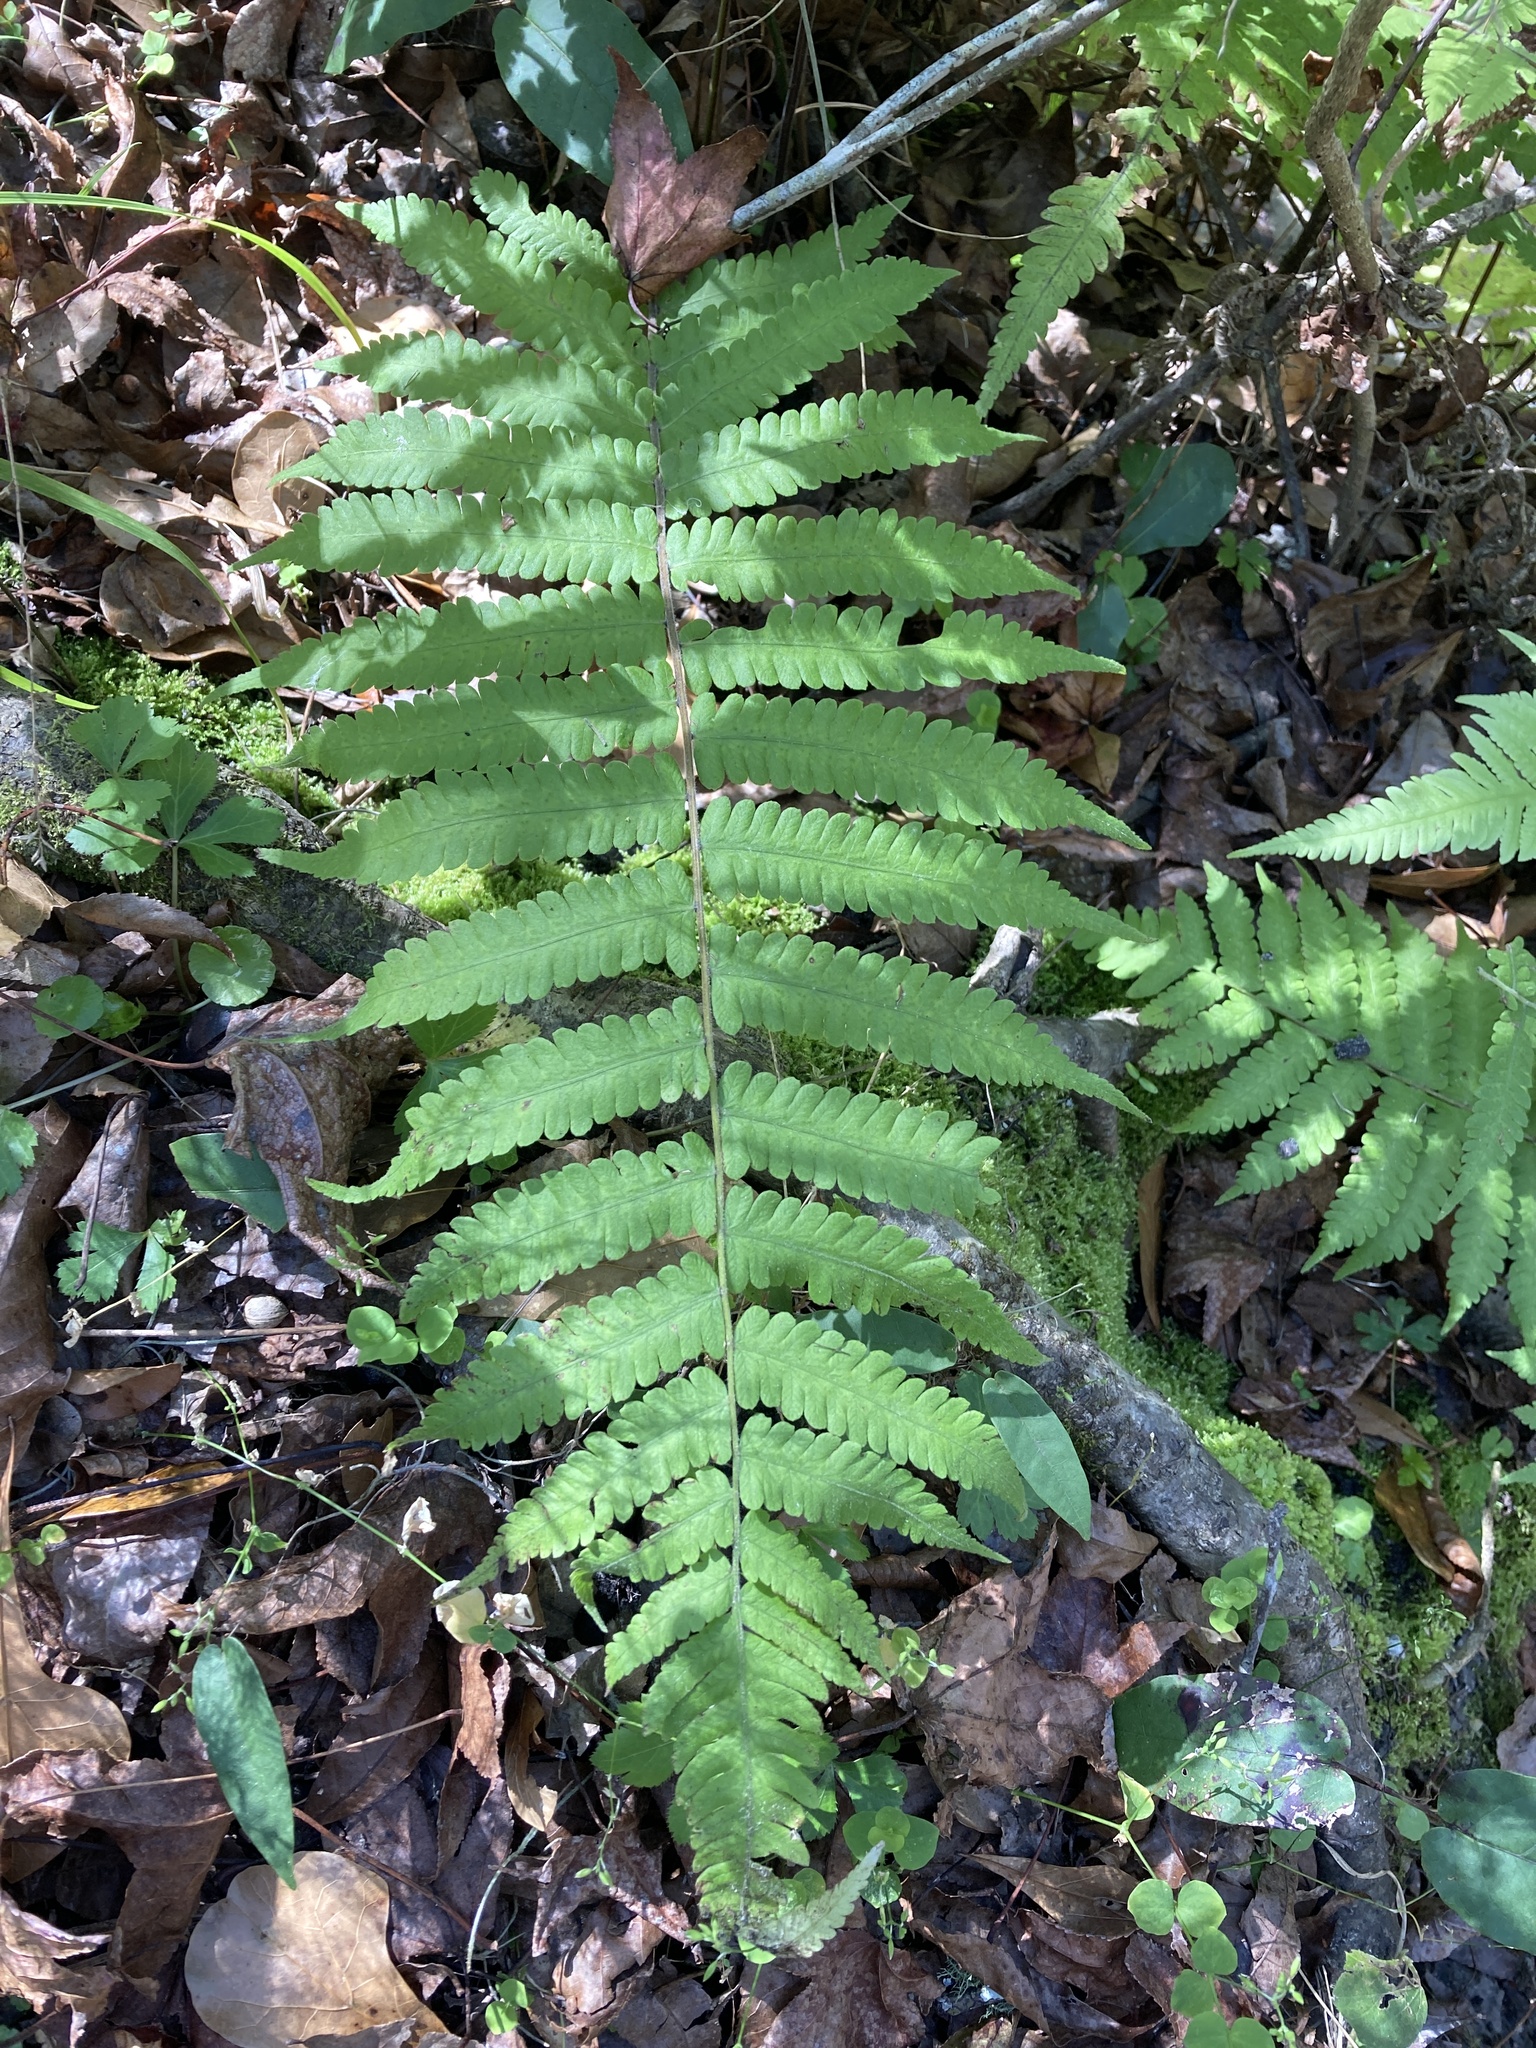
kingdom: Plantae
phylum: Tracheophyta
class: Polypodiopsida
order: Polypodiales
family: Thelypteridaceae
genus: Christella
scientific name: Christella dentata
